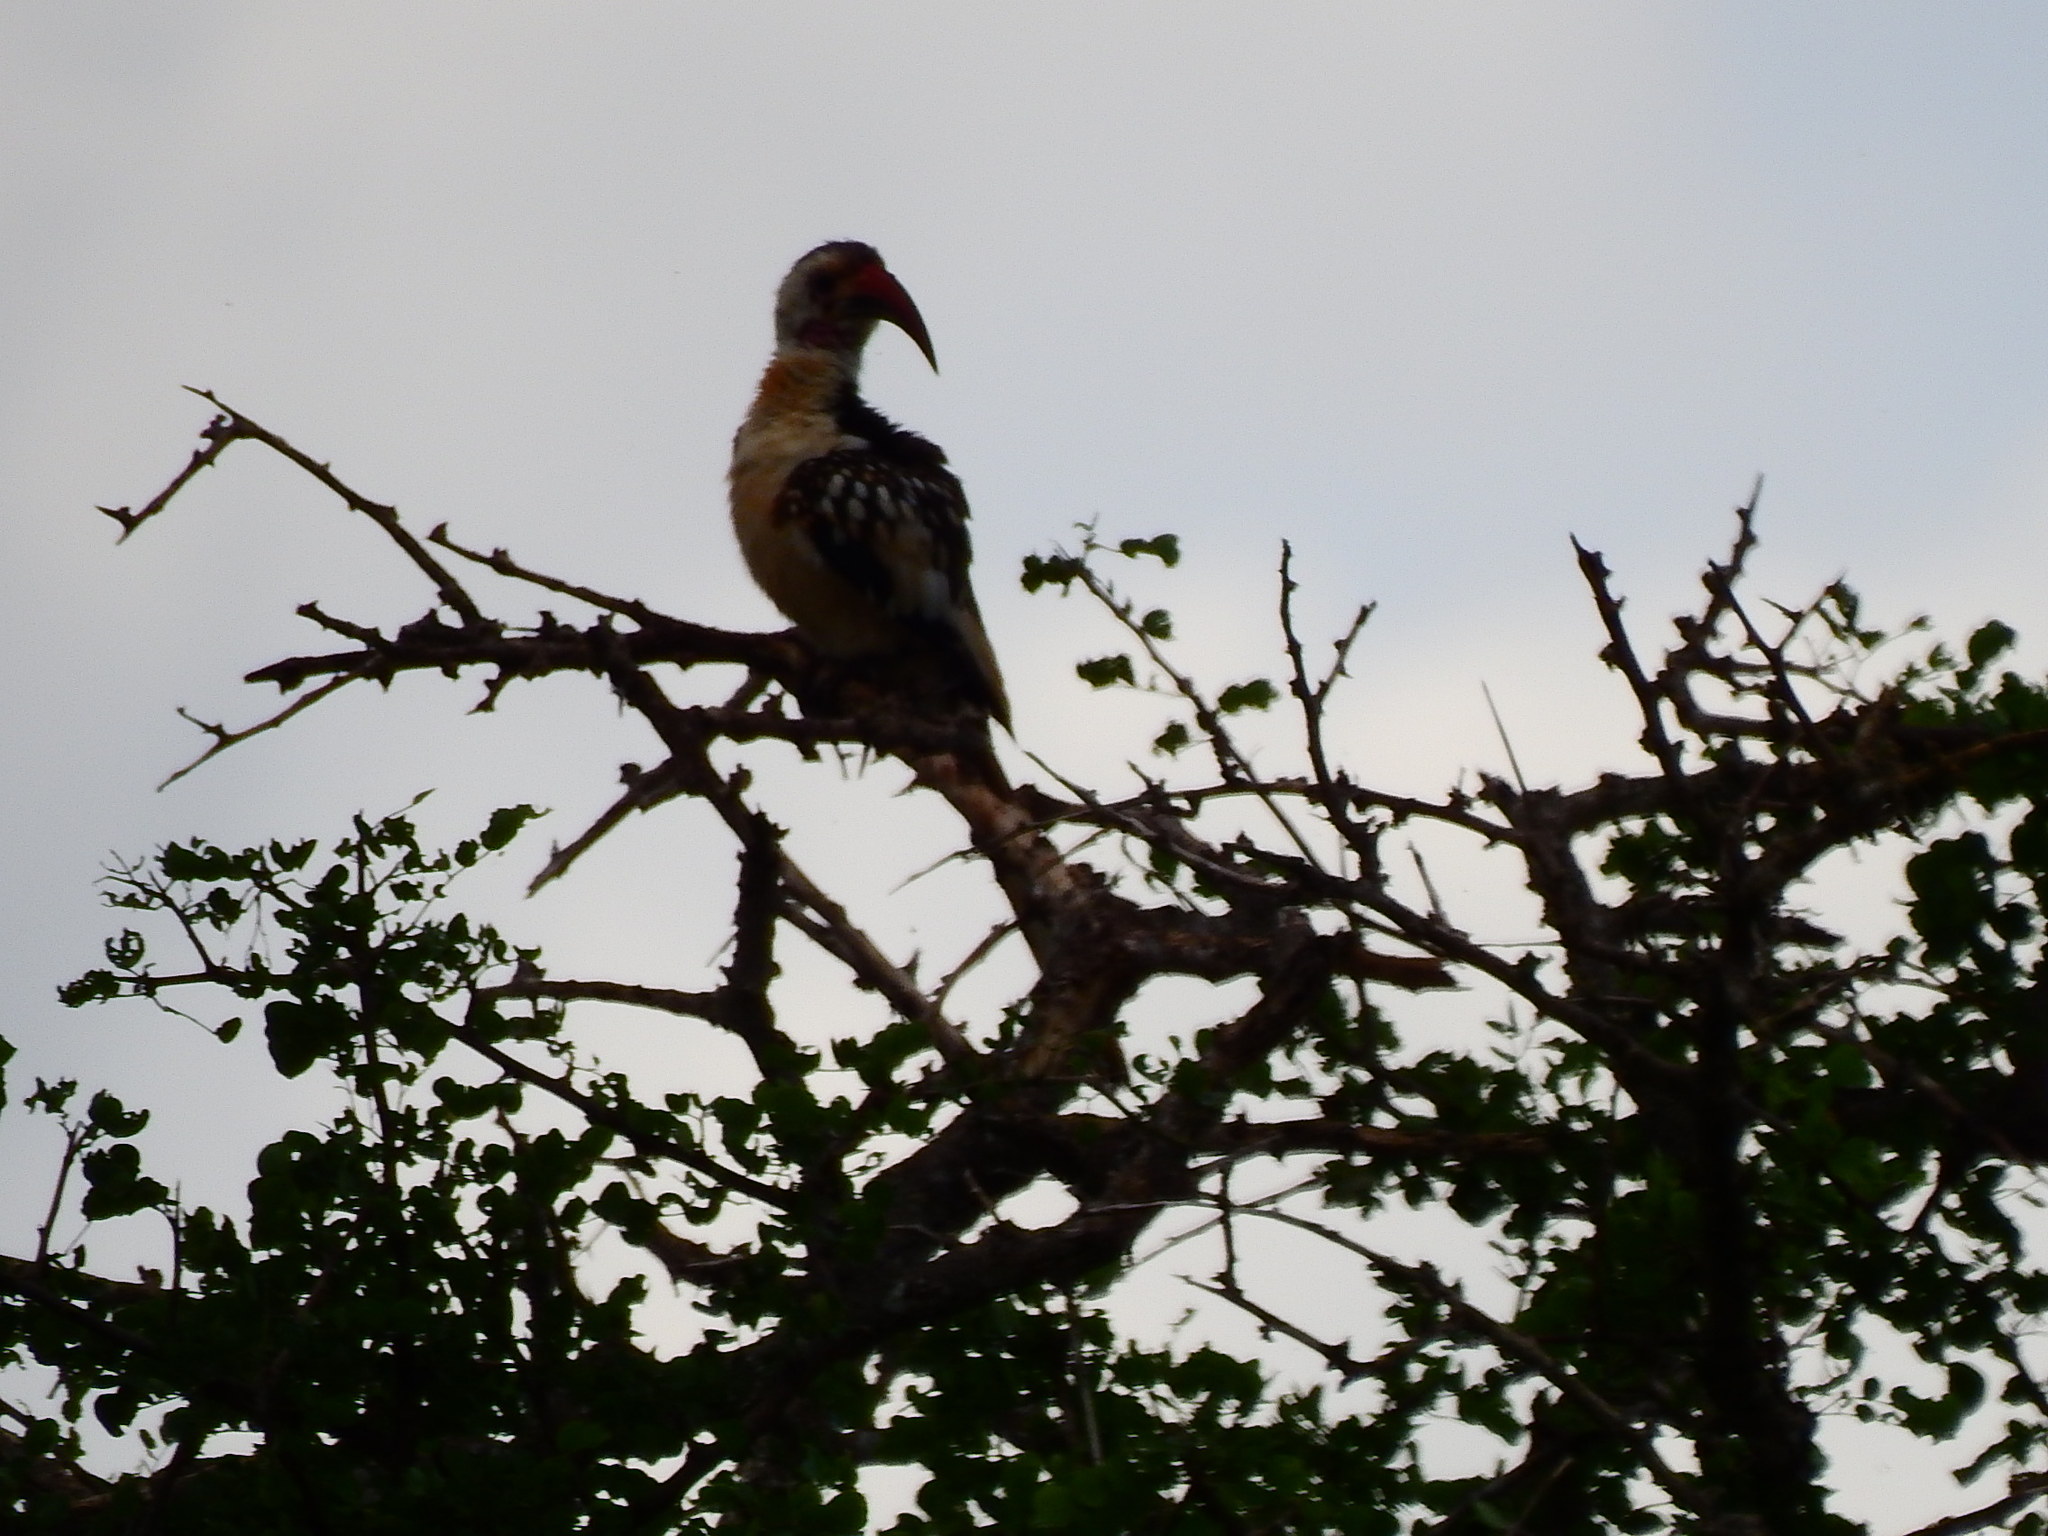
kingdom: Animalia
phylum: Chordata
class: Aves
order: Bucerotiformes
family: Bucerotidae
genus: Tockus
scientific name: Tockus erythrorhynchus
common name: Northern red-billed hornbill
